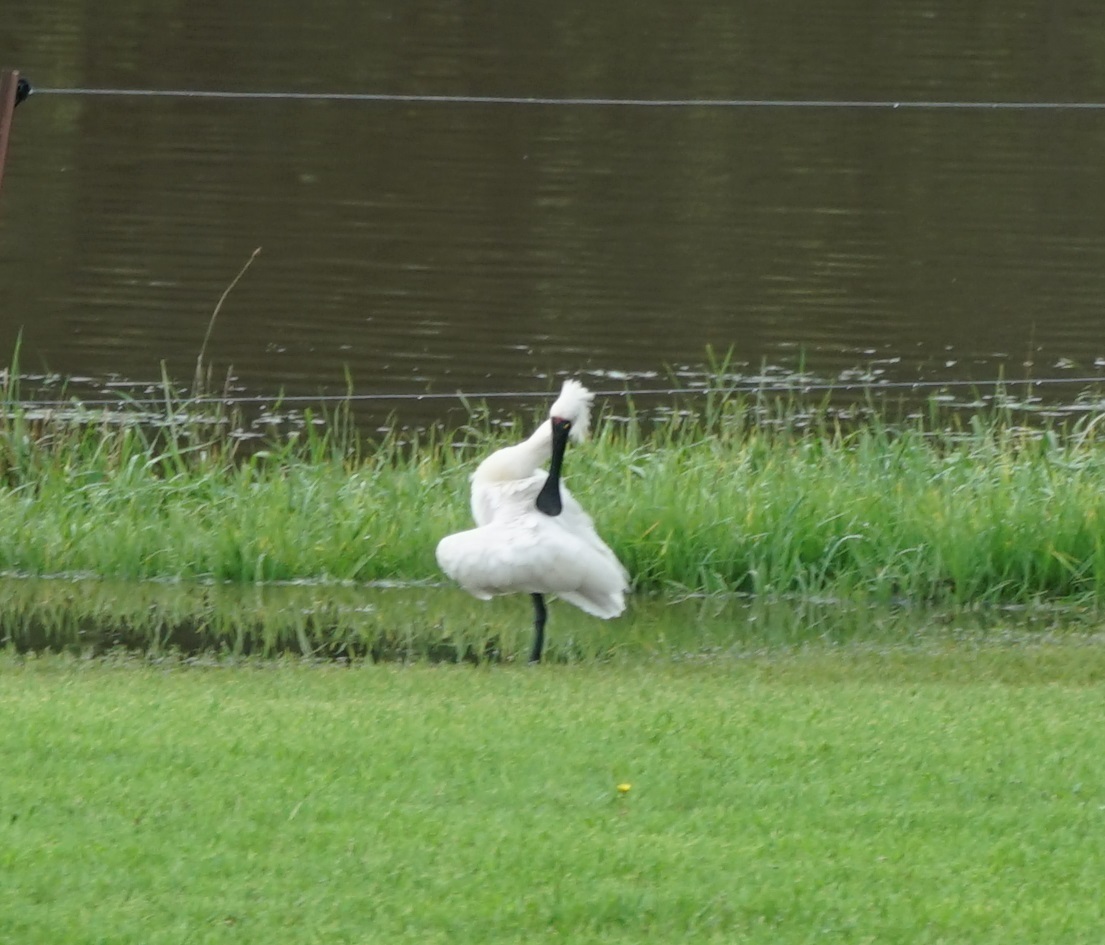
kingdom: Animalia
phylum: Chordata
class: Aves
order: Pelecaniformes
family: Threskiornithidae
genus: Platalea
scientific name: Platalea regia
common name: Royal spoonbill
